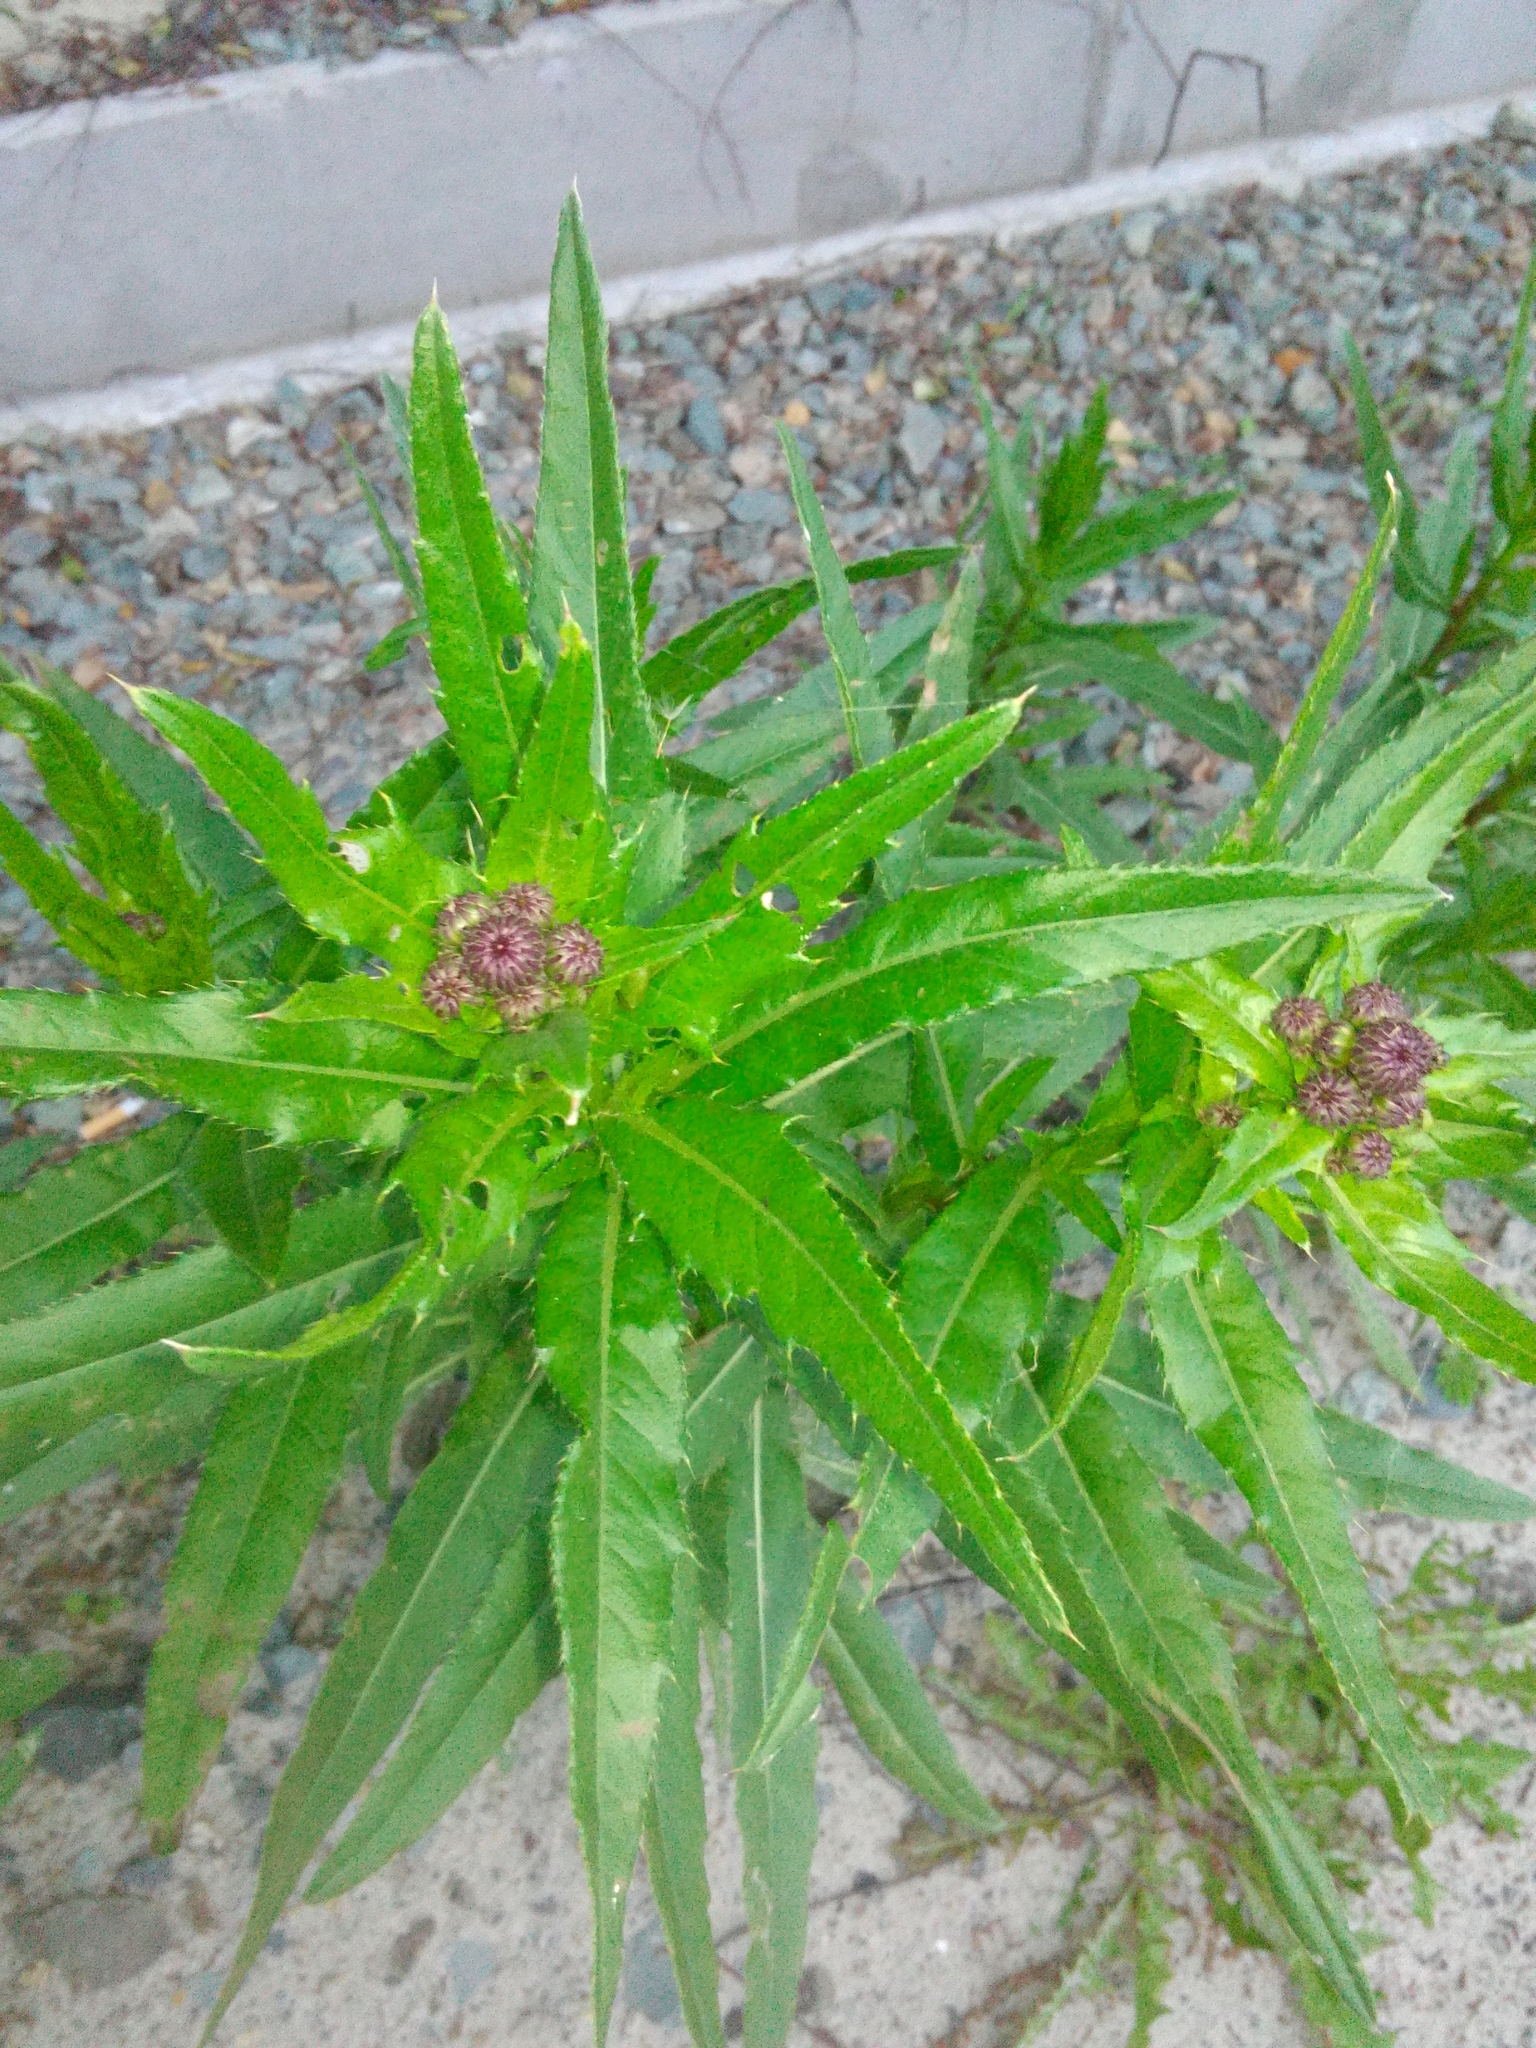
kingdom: Plantae
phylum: Tracheophyta
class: Magnoliopsida
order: Asterales
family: Asteraceae
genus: Cirsium
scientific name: Cirsium arvense
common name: Creeping thistle
